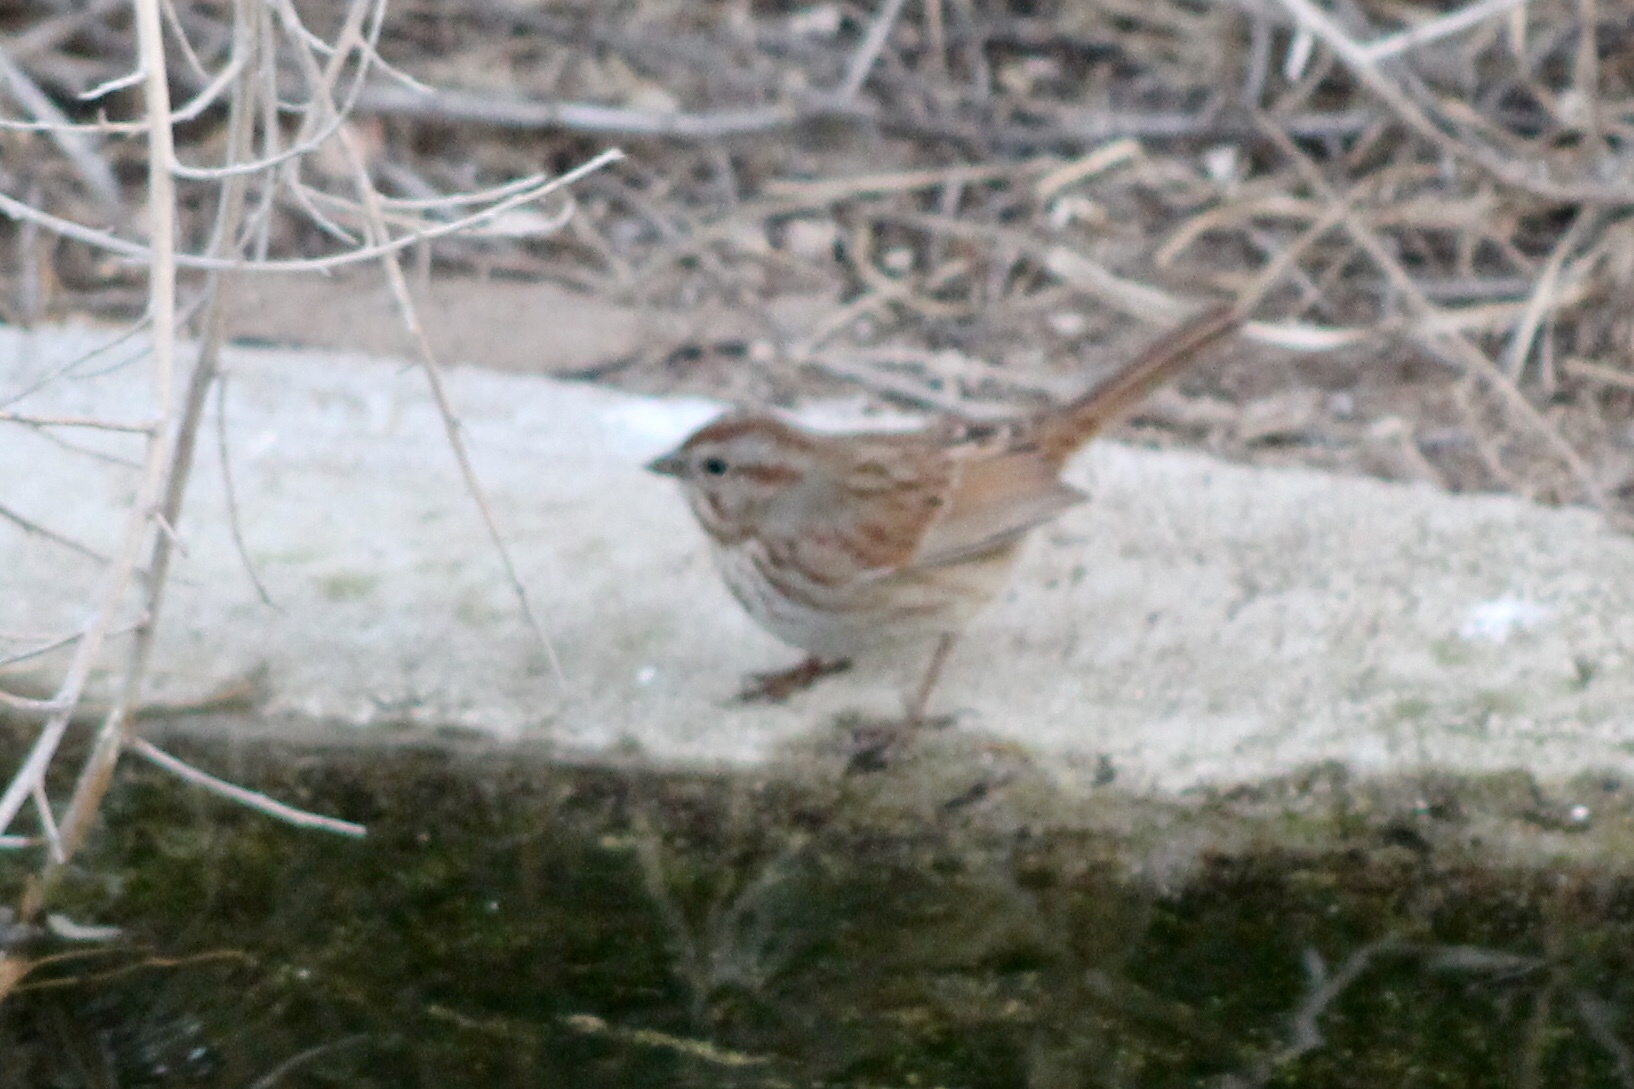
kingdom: Animalia
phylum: Chordata
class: Aves
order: Passeriformes
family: Passerellidae
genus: Melospiza
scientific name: Melospiza melodia
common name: Song sparrow
